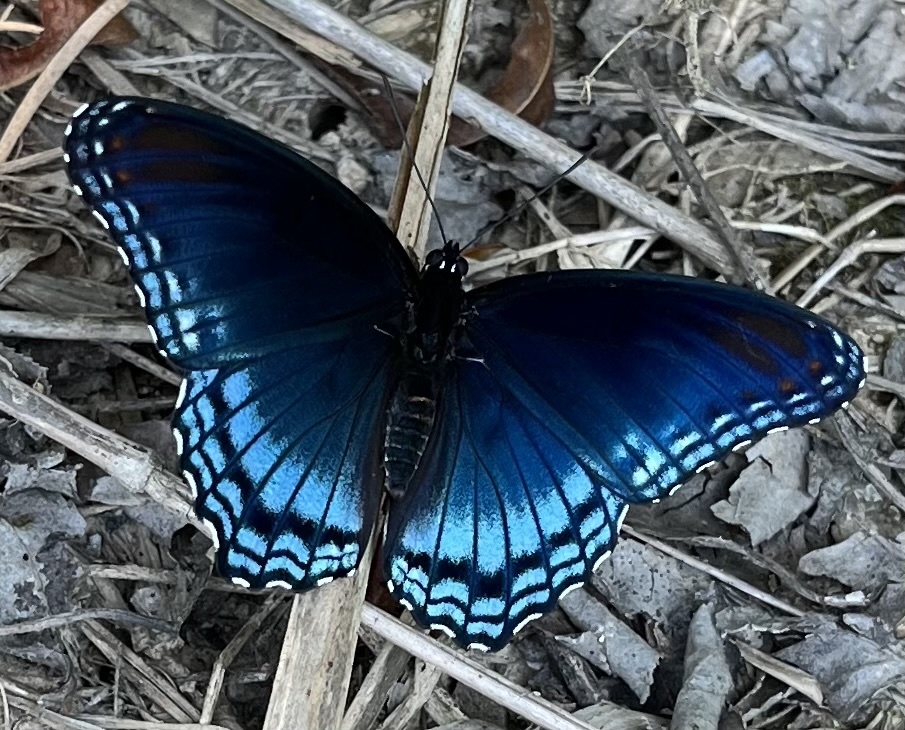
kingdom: Animalia
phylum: Arthropoda
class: Insecta
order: Lepidoptera
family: Nymphalidae
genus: Limenitis
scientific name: Limenitis arthemis
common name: Red-spotted admiral
